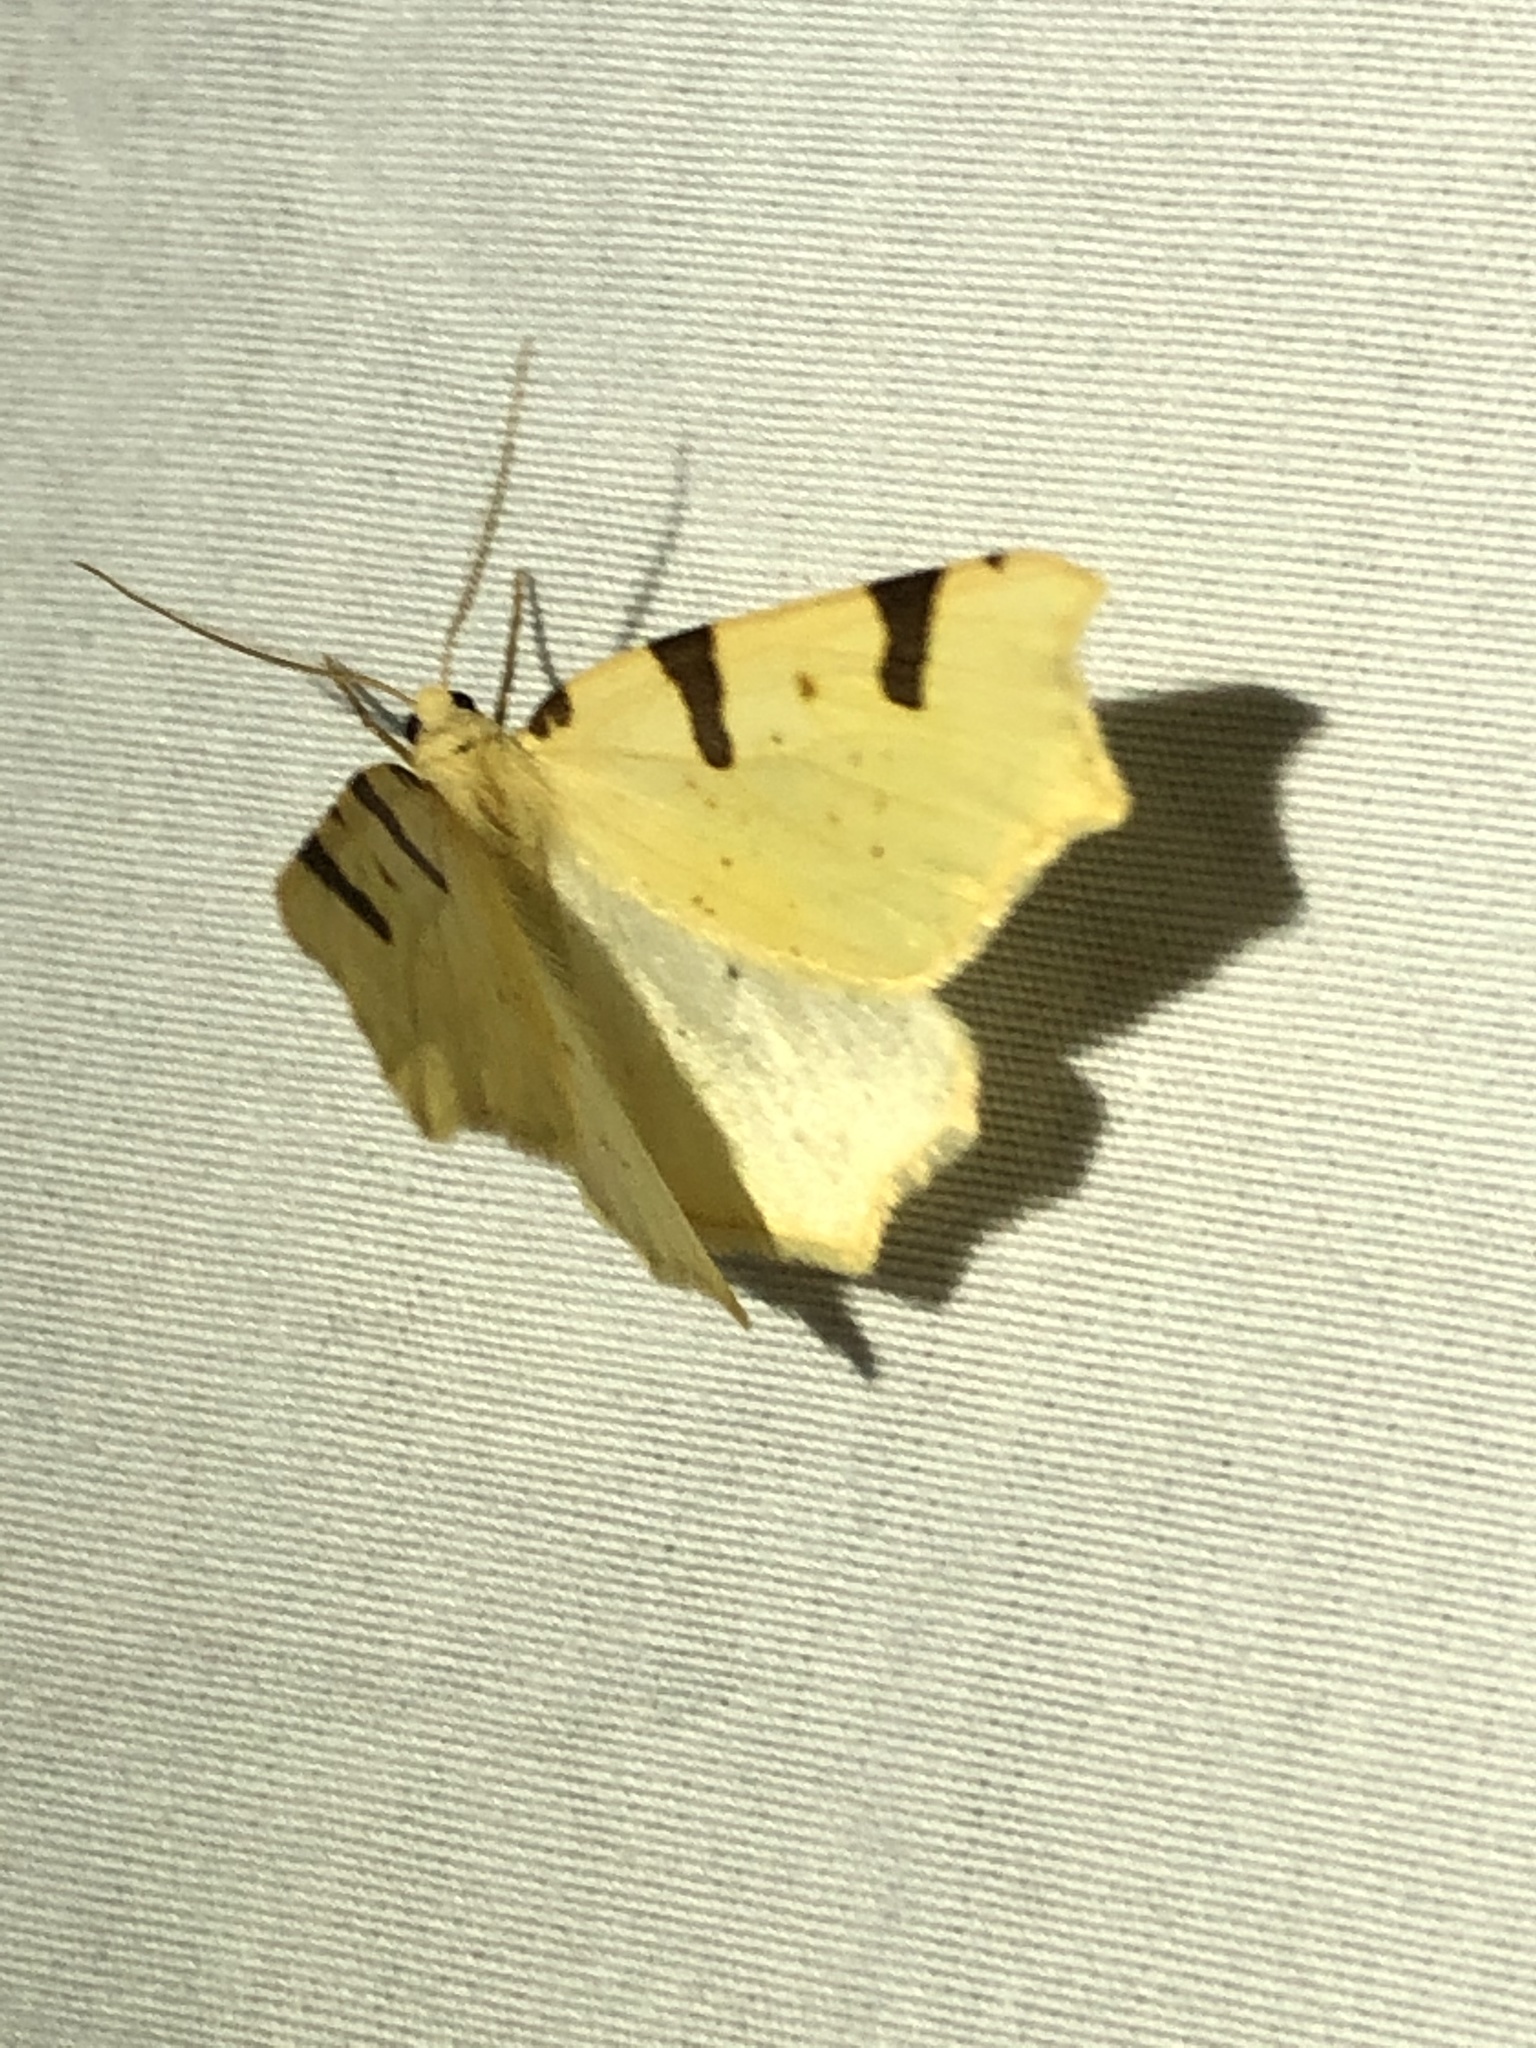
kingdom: Animalia
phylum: Arthropoda
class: Insecta
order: Lepidoptera
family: Geometridae
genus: Neoterpes
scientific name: Neoterpes trianguliferata
